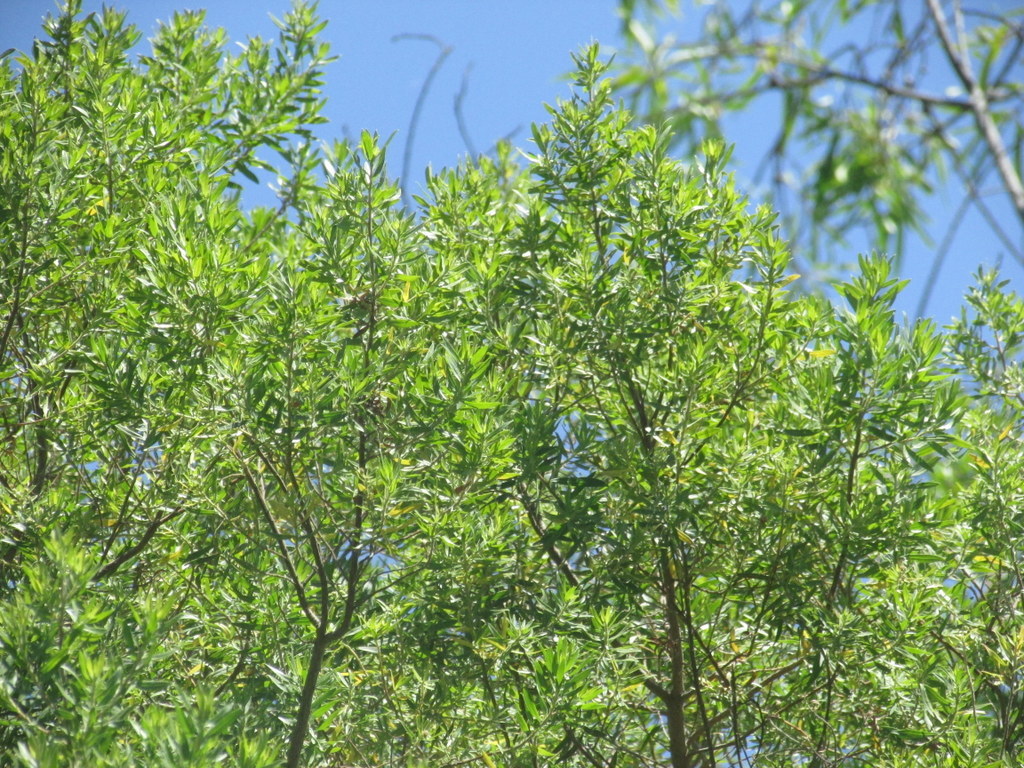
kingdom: Plantae
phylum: Tracheophyta
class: Magnoliopsida
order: Asterales
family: Asteraceae
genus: Baccharis
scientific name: Baccharis dracunculifolia
